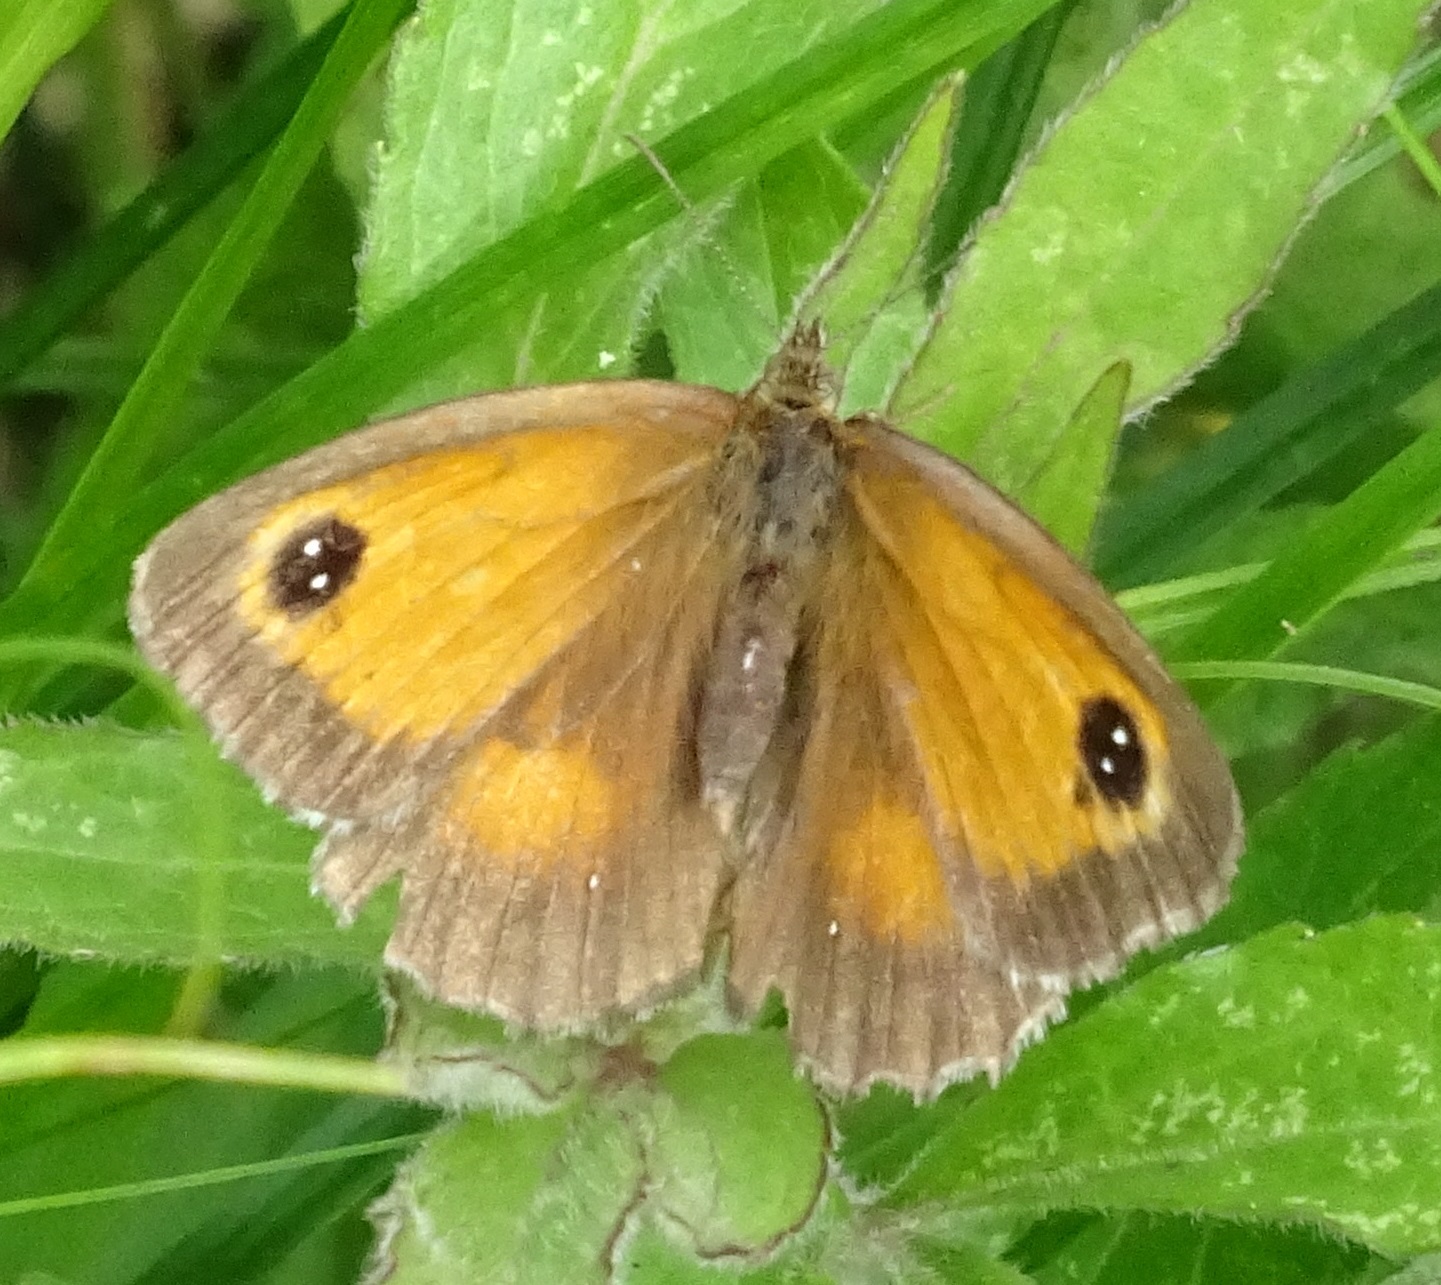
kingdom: Animalia
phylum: Arthropoda
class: Insecta
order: Lepidoptera
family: Nymphalidae
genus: Pyronia
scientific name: Pyronia tithonus
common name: Gatekeeper
